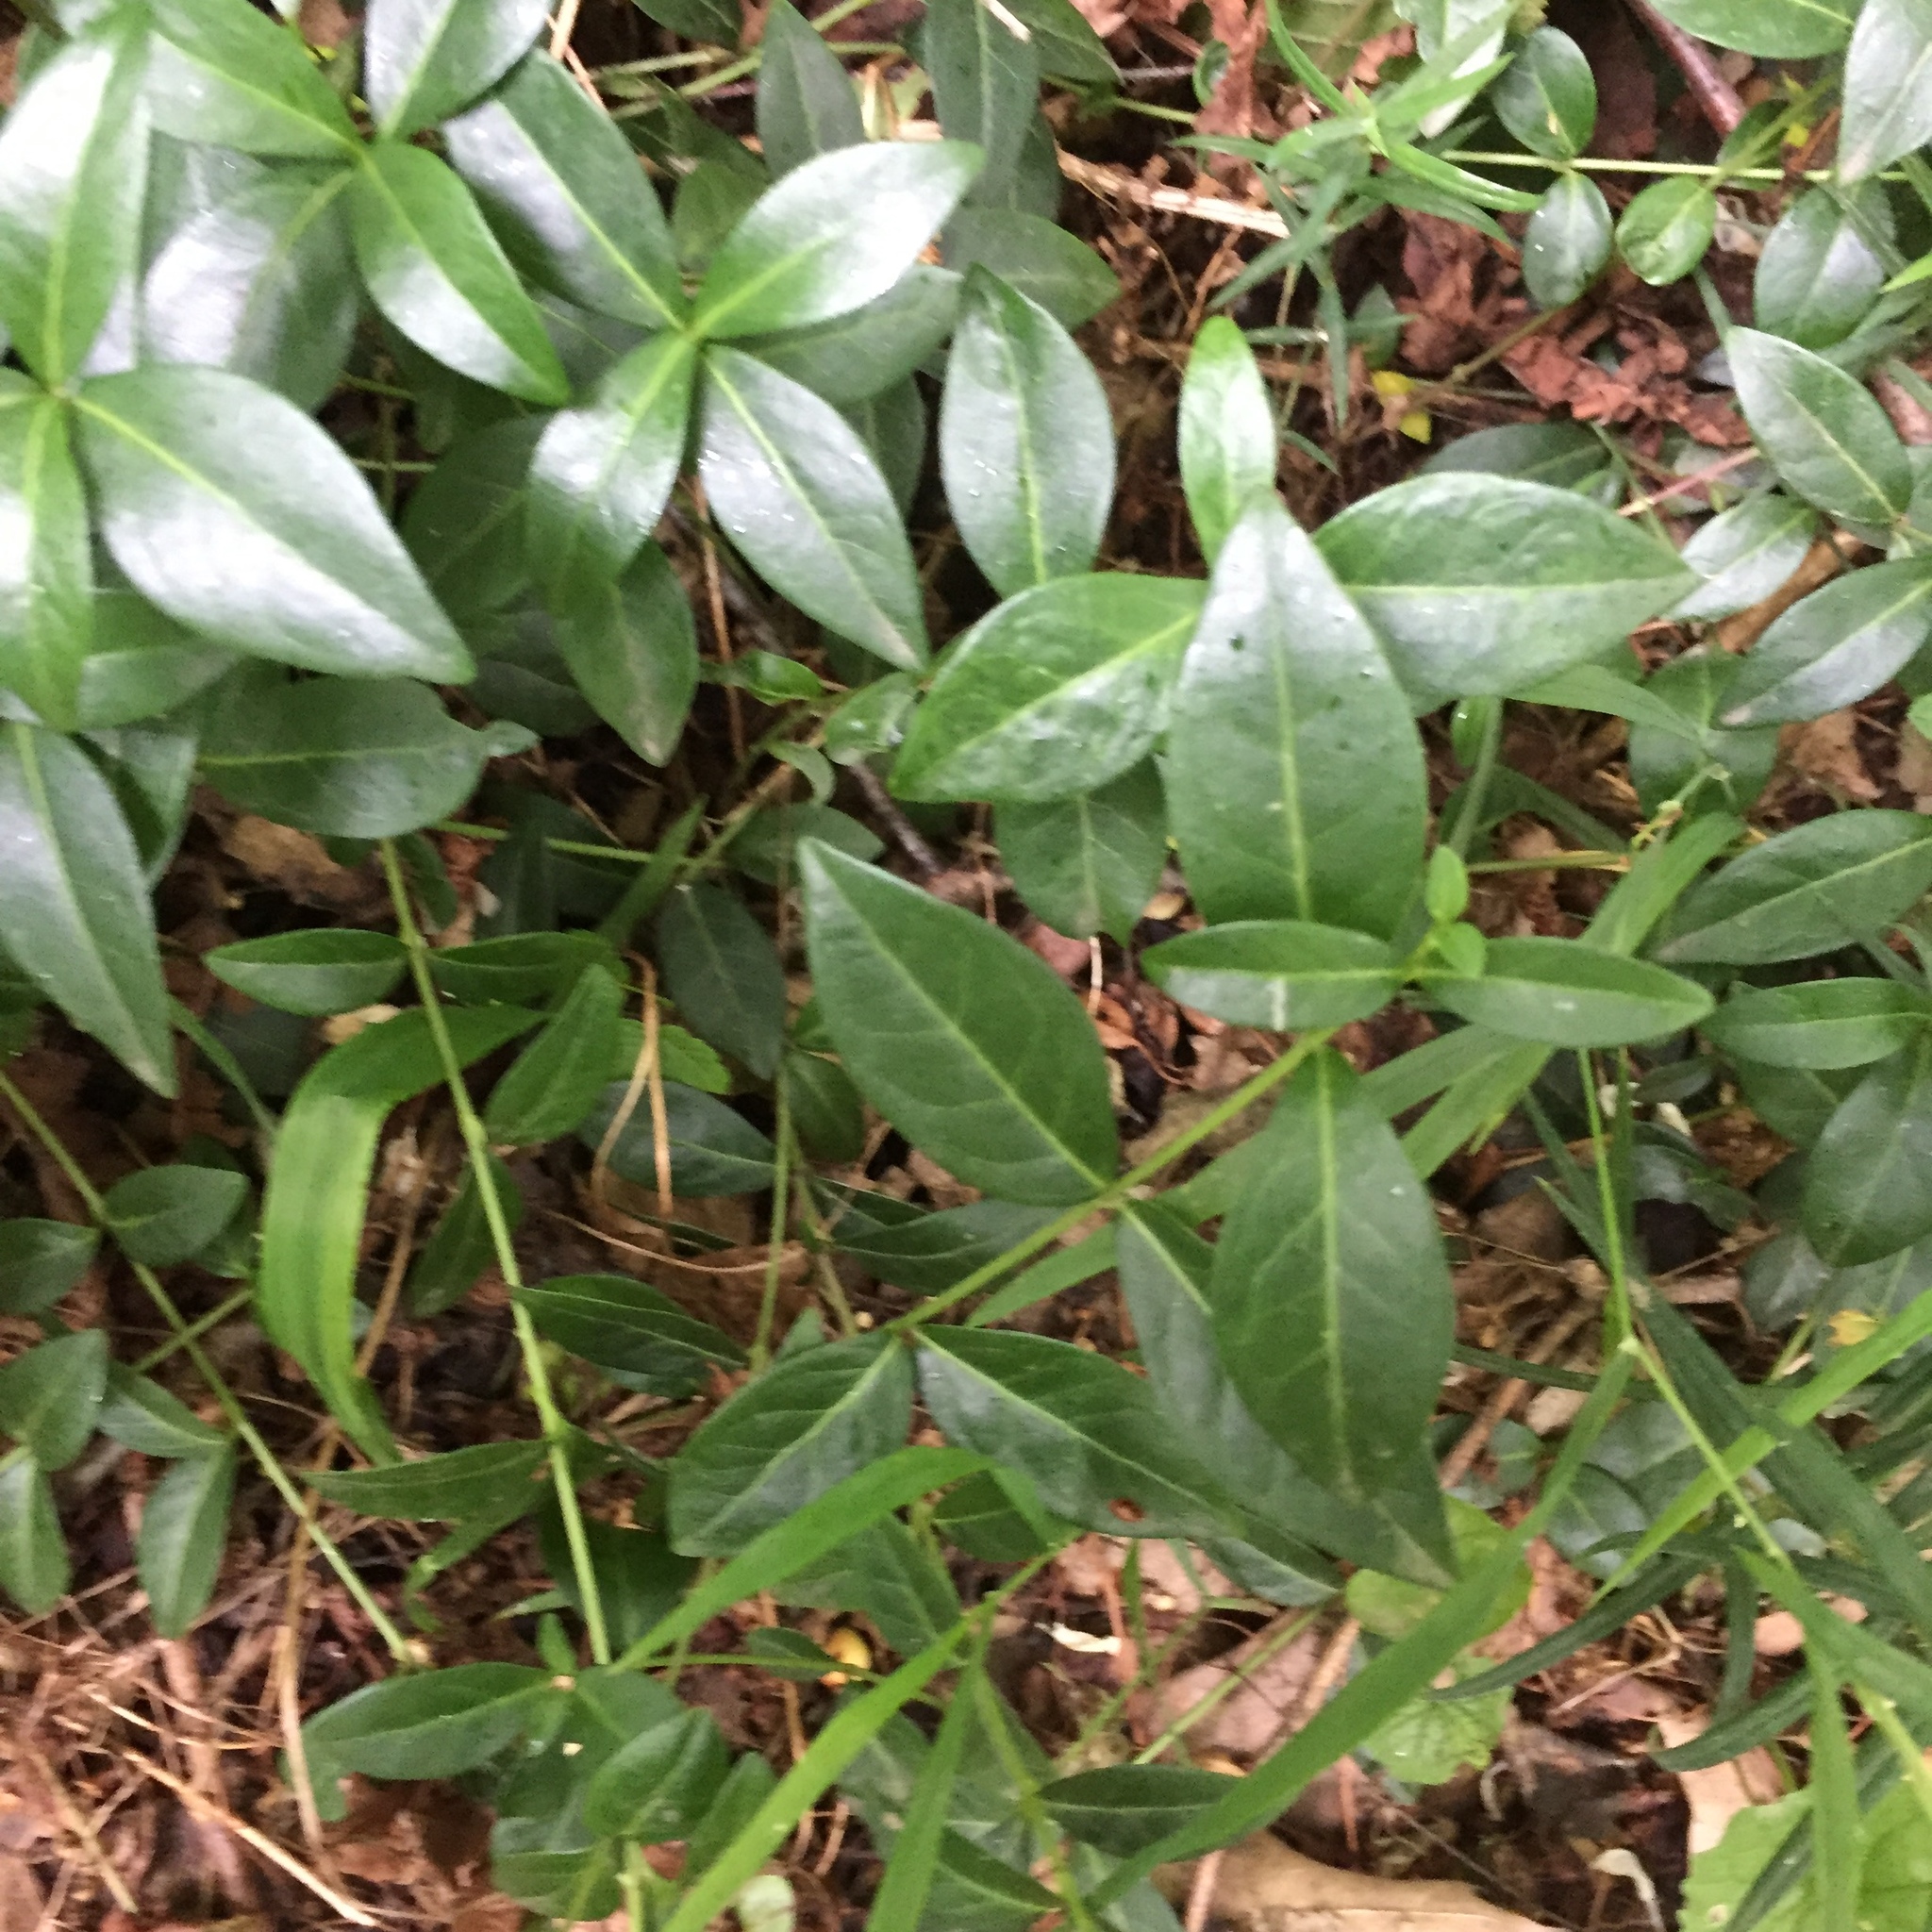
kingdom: Plantae
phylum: Tracheophyta
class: Magnoliopsida
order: Gentianales
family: Apocynaceae
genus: Vinca
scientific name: Vinca minor
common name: Lesser periwinkle
